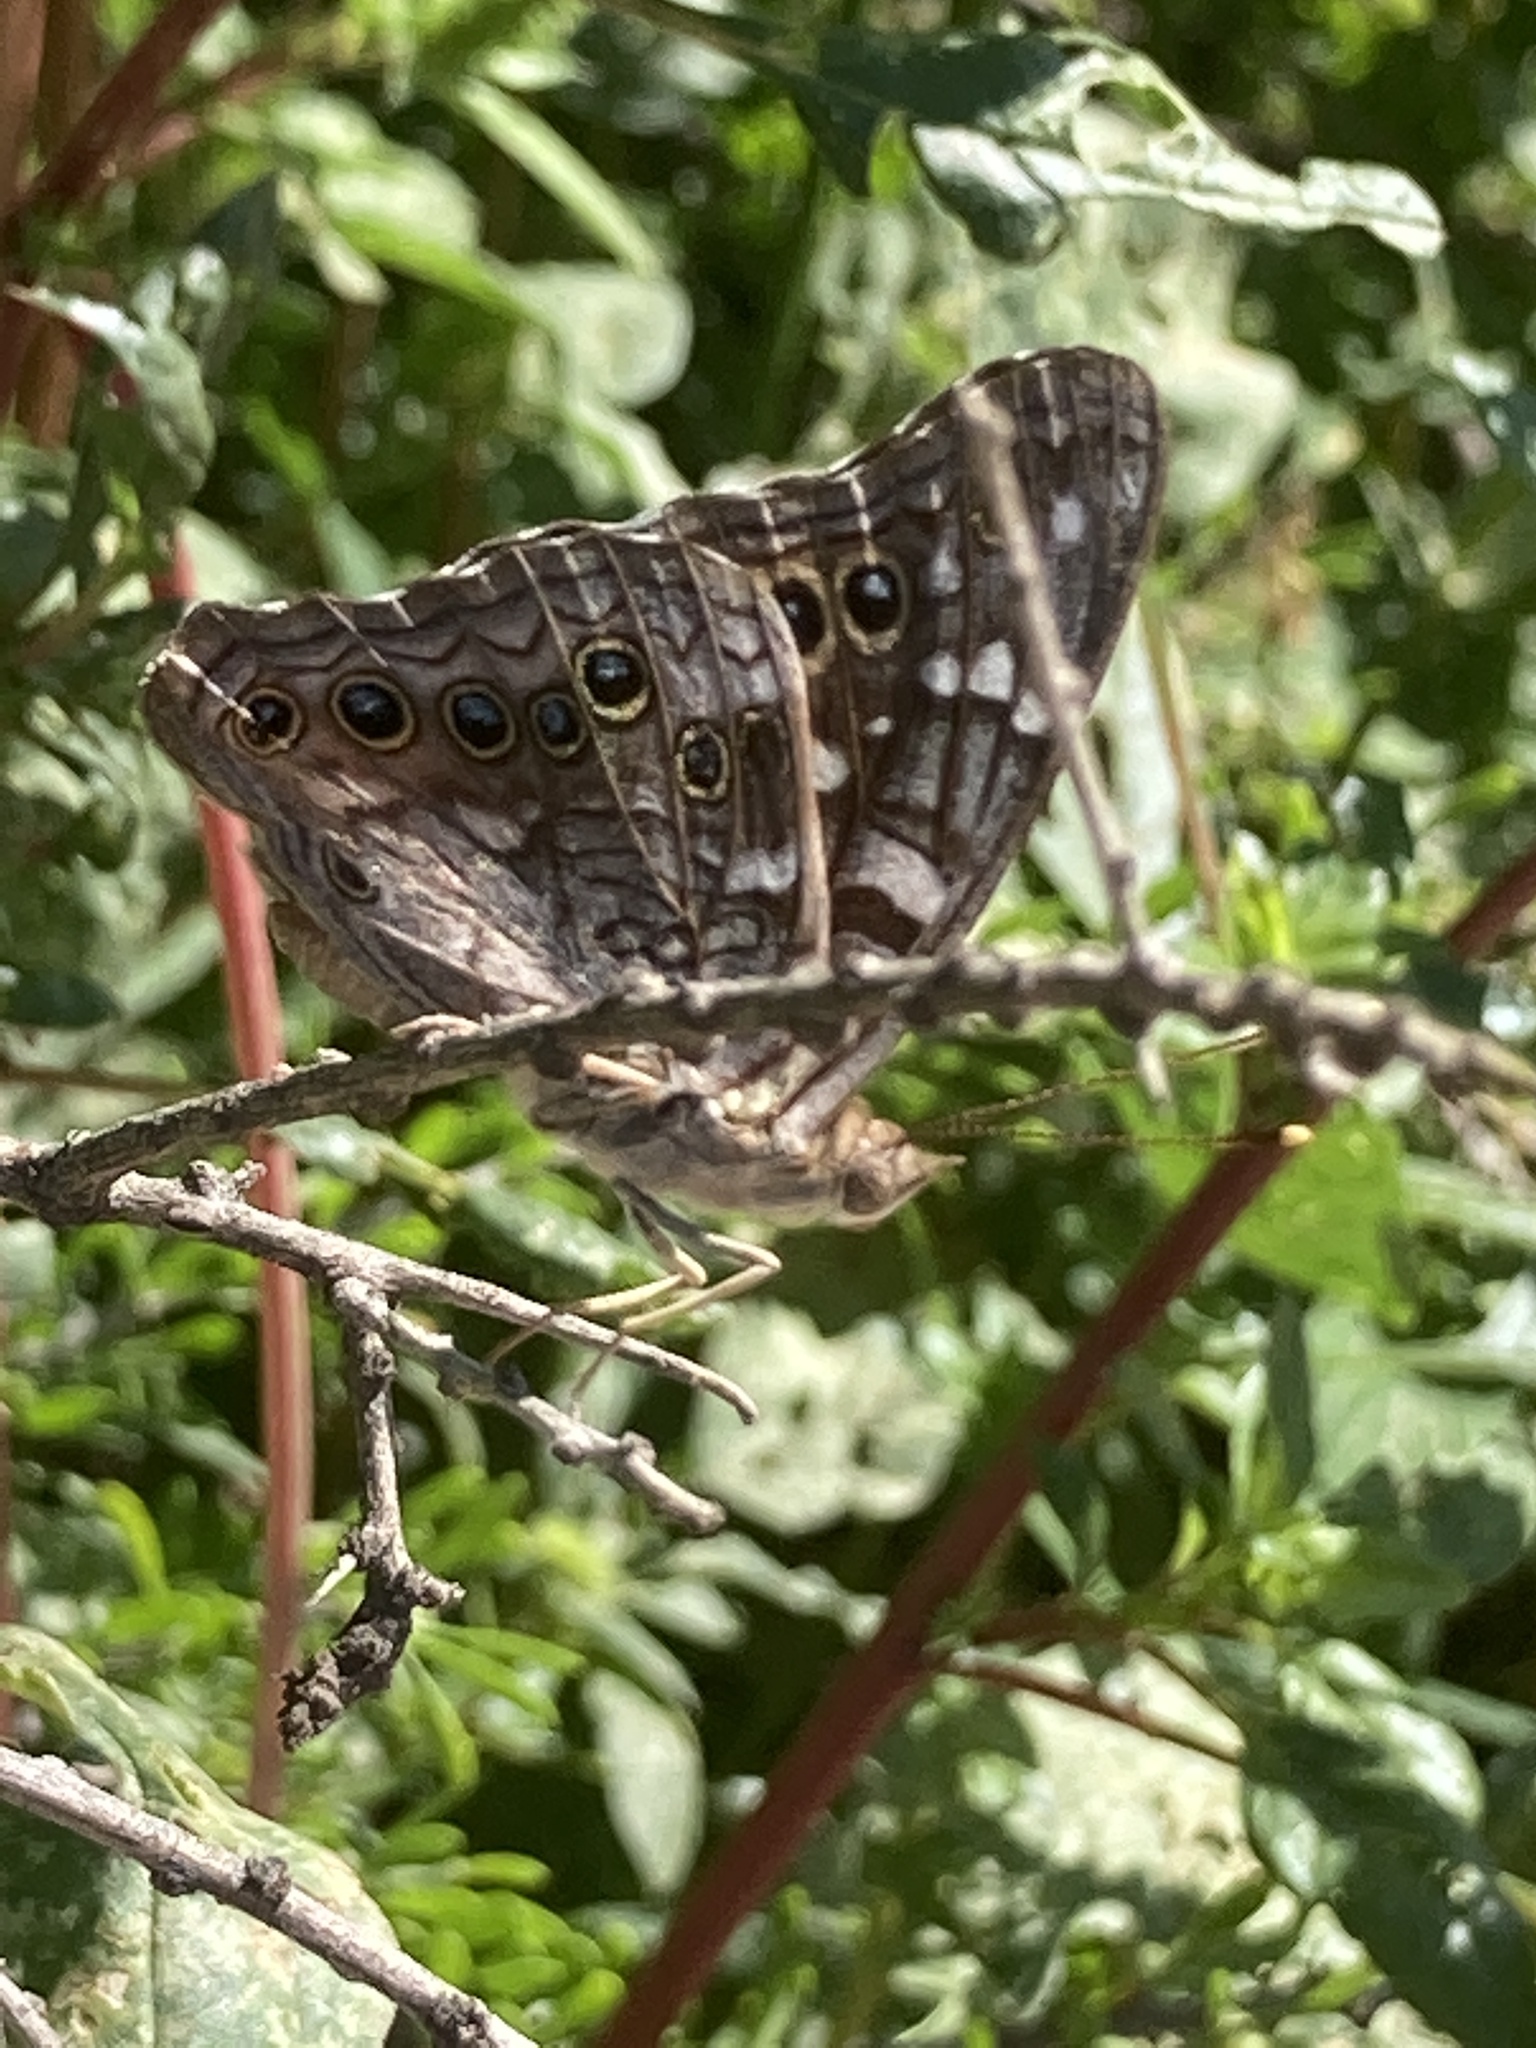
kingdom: Animalia
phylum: Arthropoda
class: Insecta
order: Lepidoptera
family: Nymphalidae
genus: Asterocampa
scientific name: Asterocampa leilia
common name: Empress leilia
